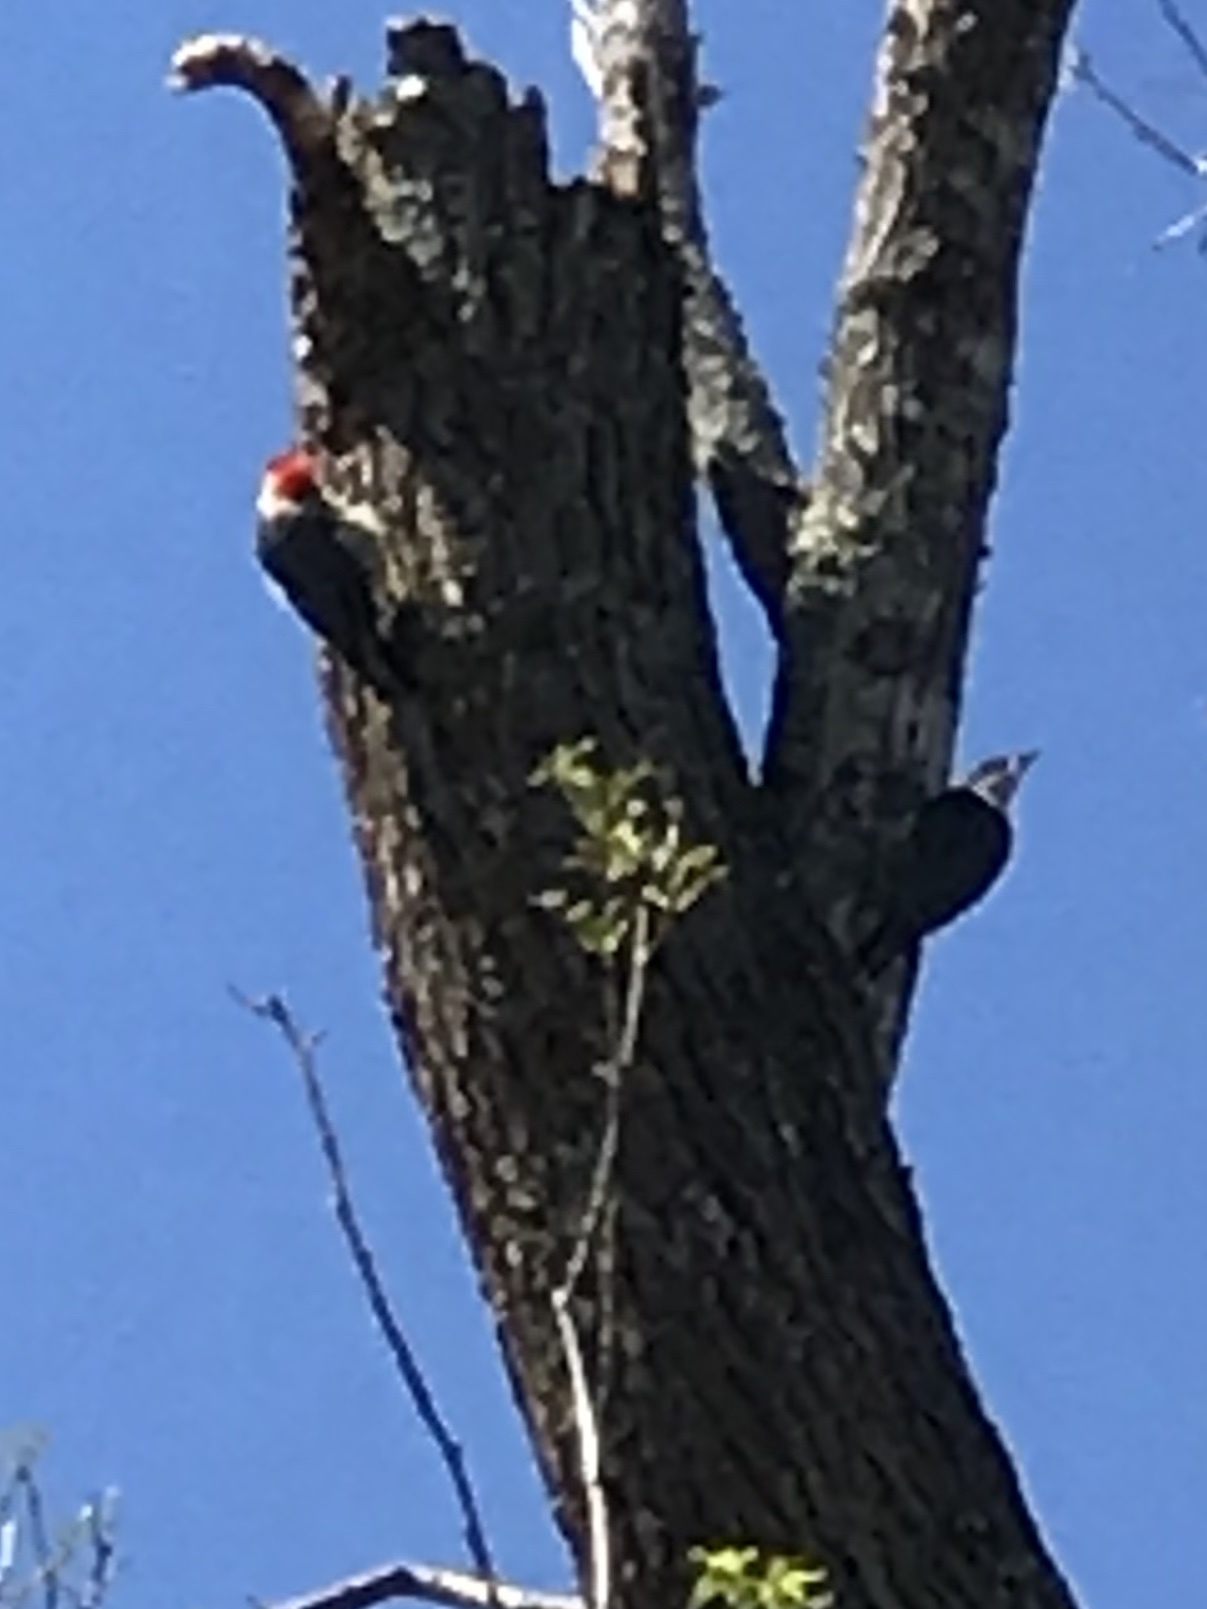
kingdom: Animalia
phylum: Chordata
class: Aves
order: Piciformes
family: Picidae
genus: Dryocopus
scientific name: Dryocopus pileatus
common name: Pileated woodpecker
